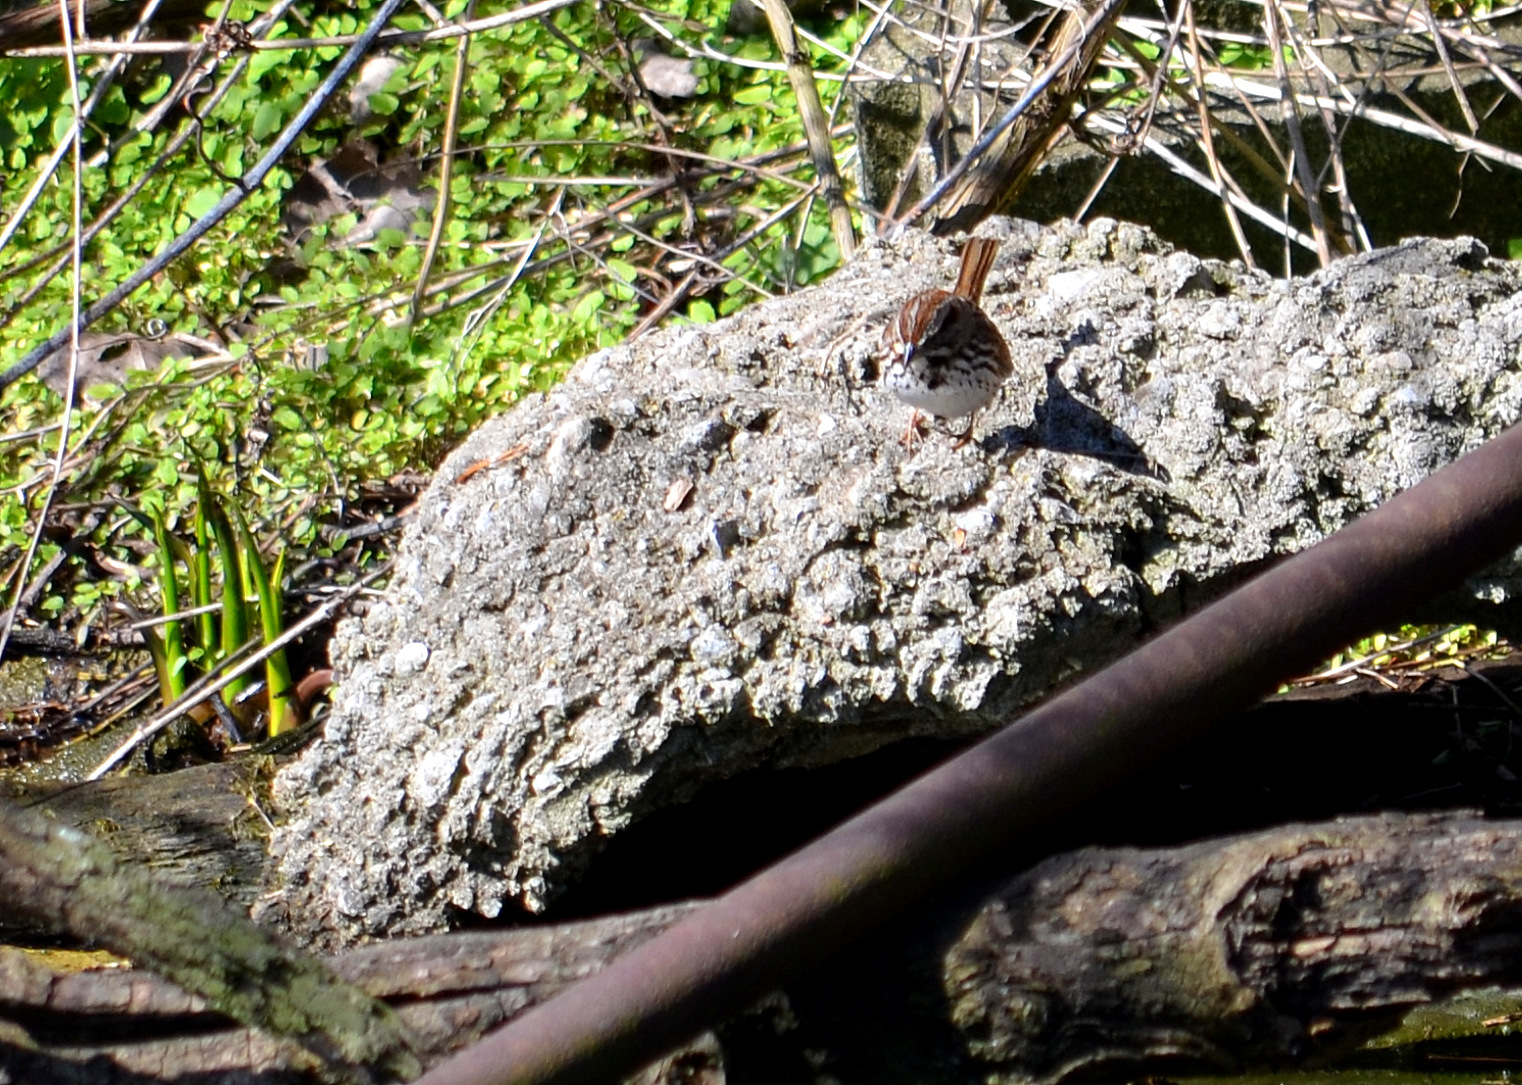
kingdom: Animalia
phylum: Chordata
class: Aves
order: Passeriformes
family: Passerellidae
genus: Melospiza
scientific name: Melospiza melodia
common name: Song sparrow
